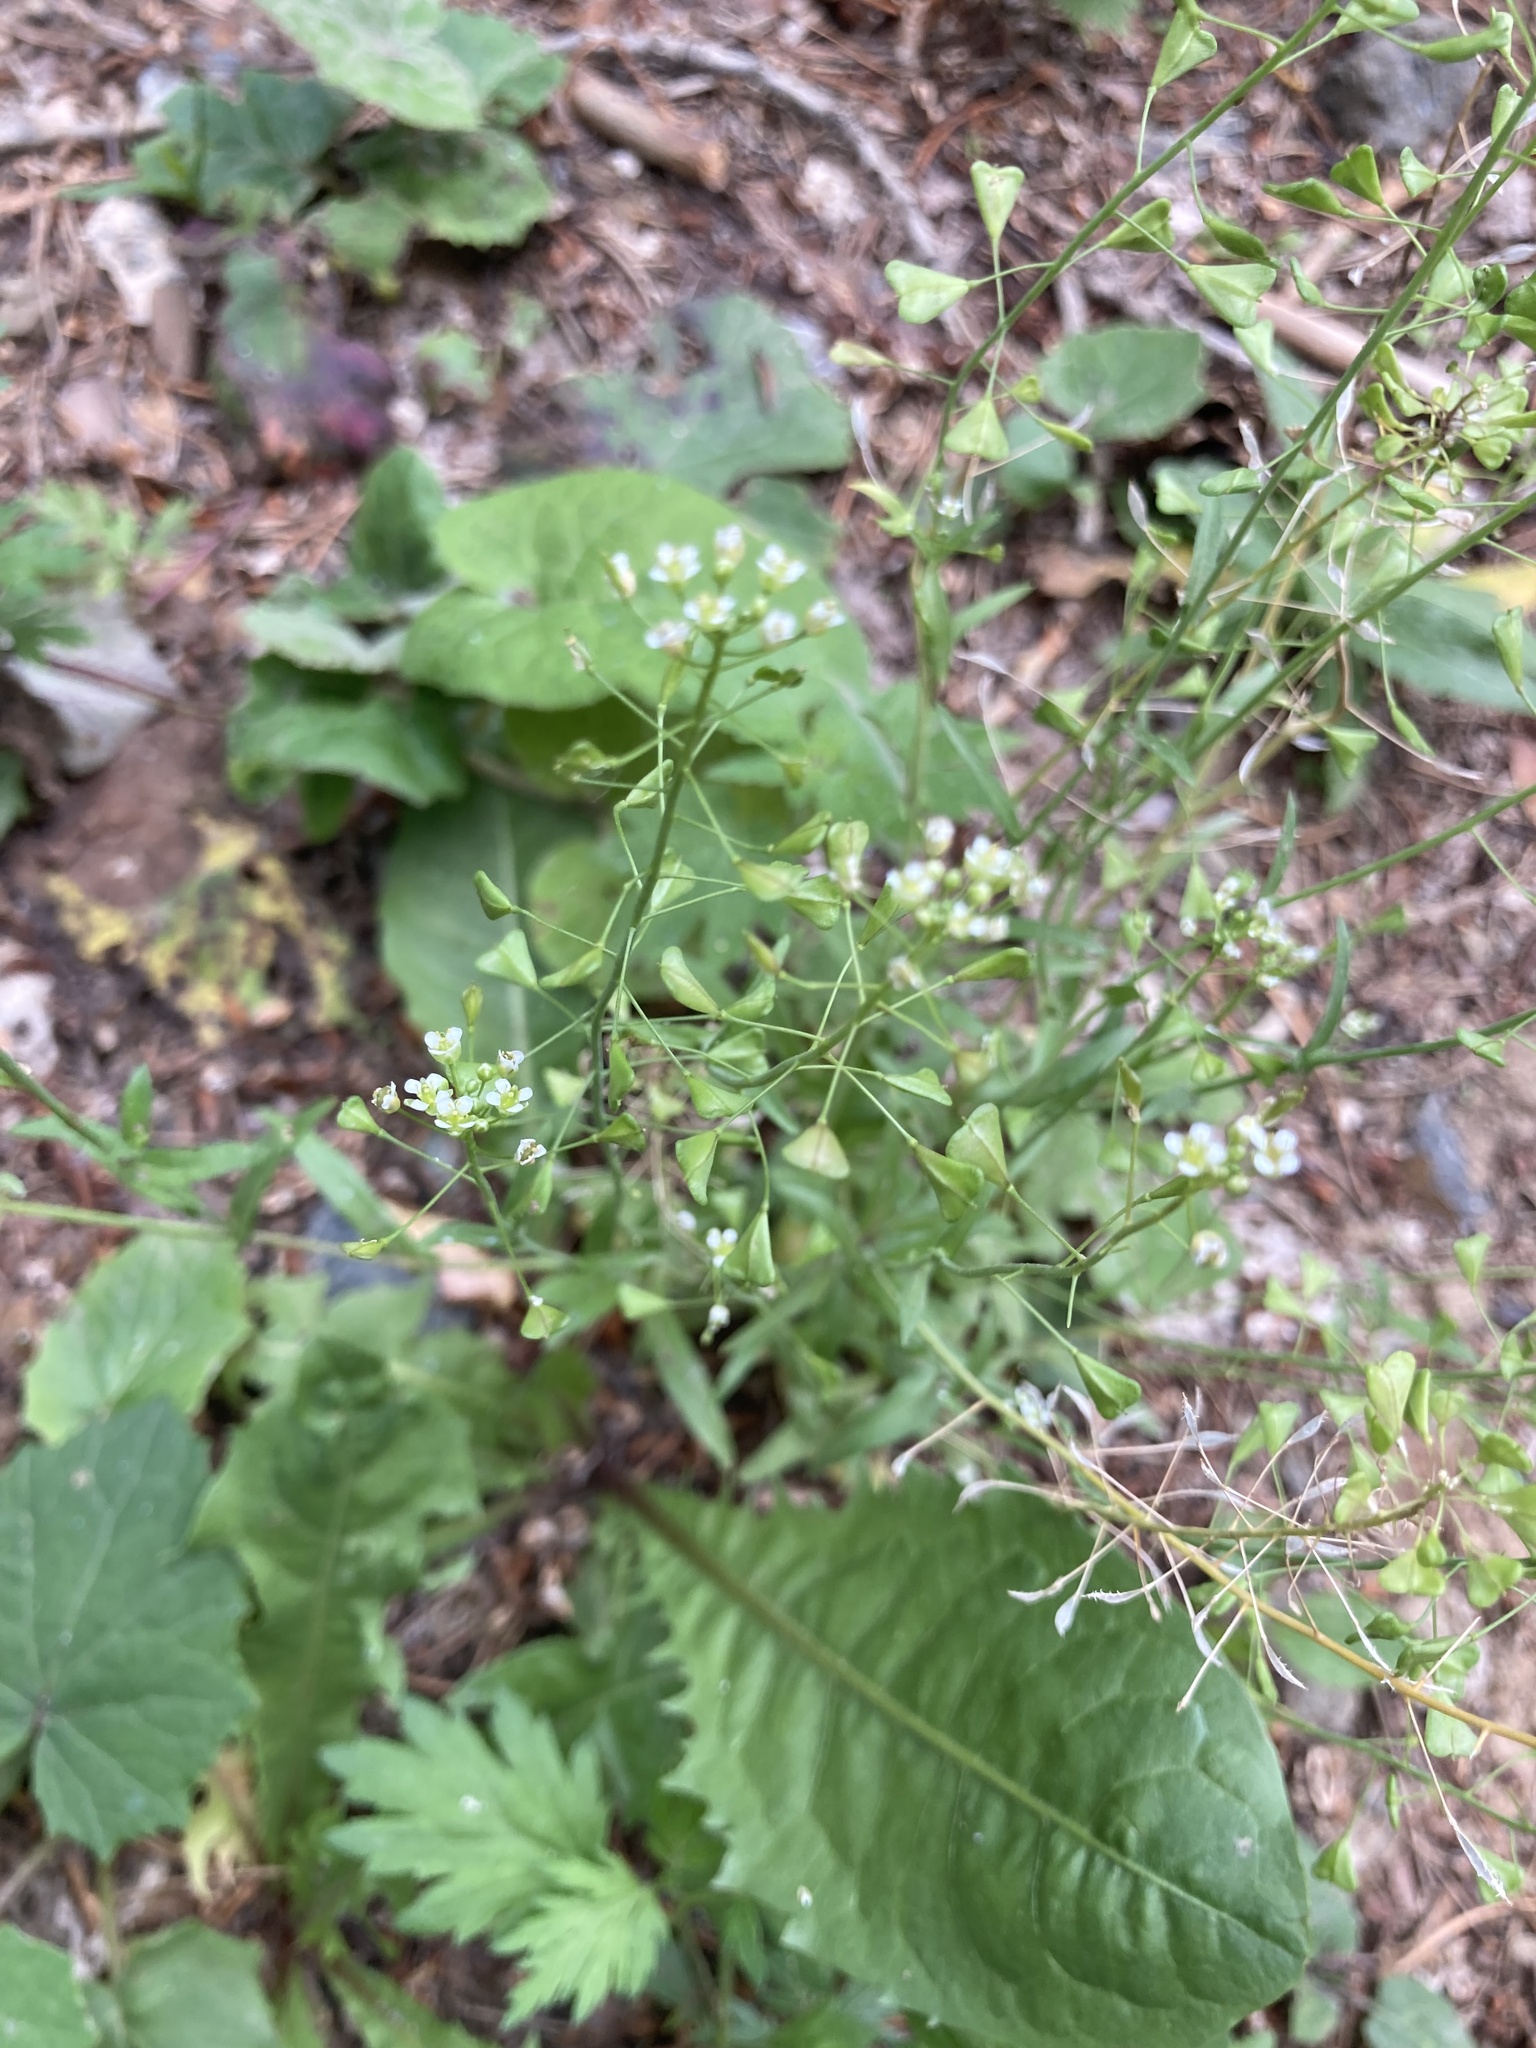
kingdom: Plantae
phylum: Tracheophyta
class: Magnoliopsida
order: Brassicales
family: Brassicaceae
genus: Capsella
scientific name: Capsella bursa-pastoris
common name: Shepherd's purse
